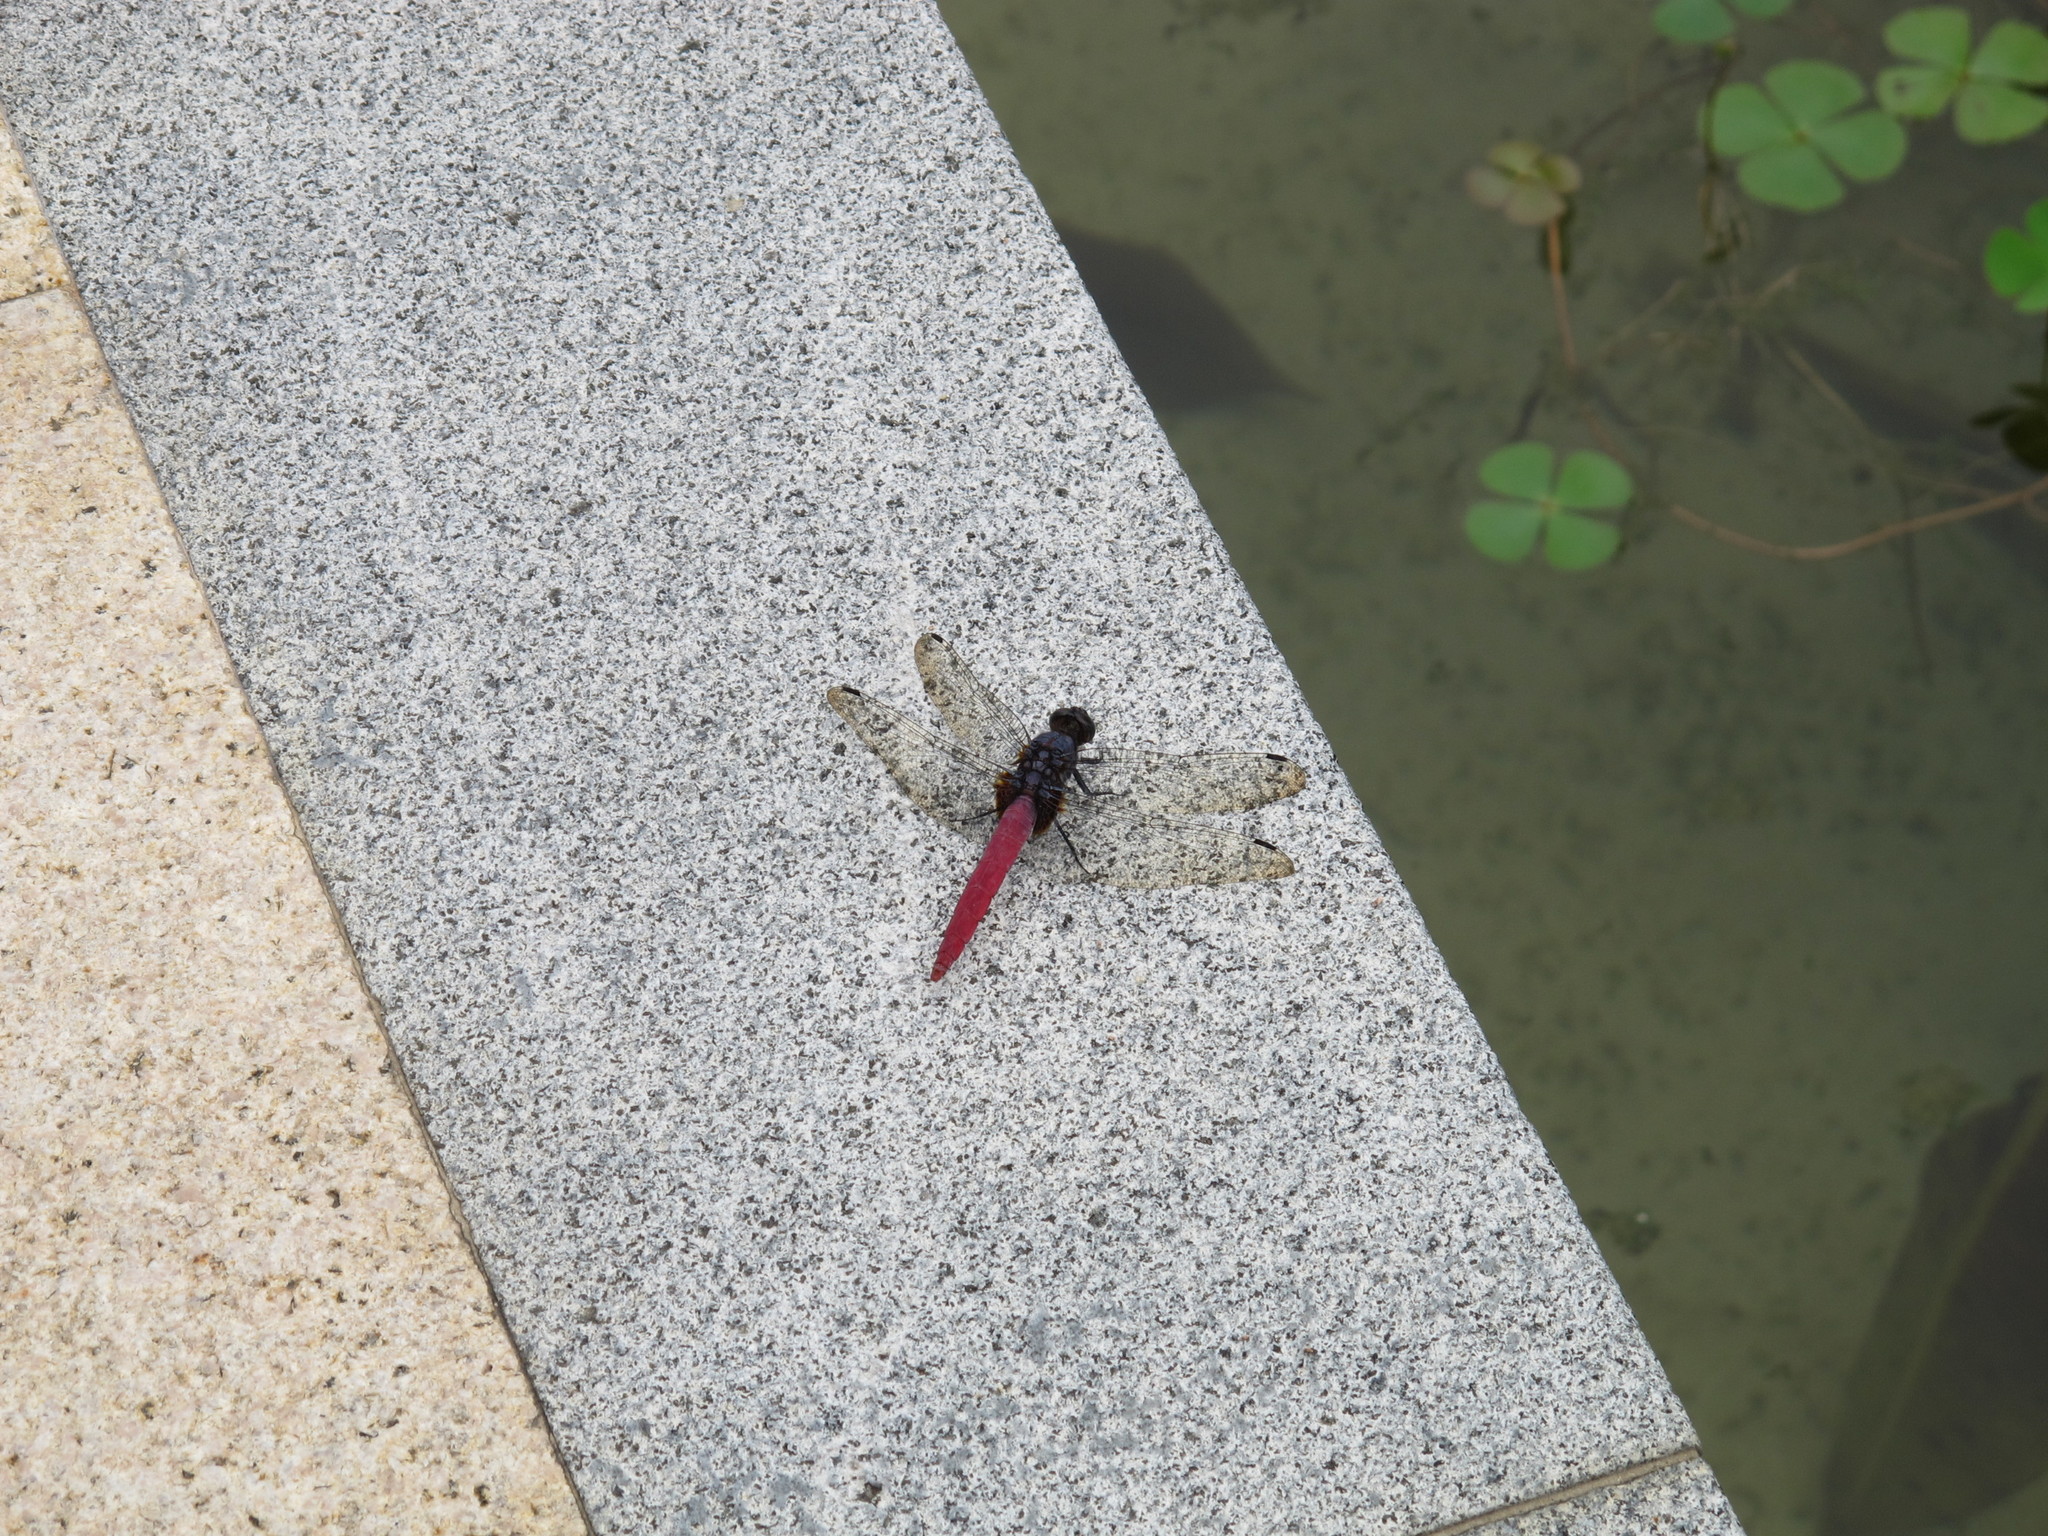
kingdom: Animalia
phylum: Arthropoda
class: Insecta
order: Odonata
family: Libellulidae
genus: Orthetrum
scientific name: Orthetrum pruinosum
